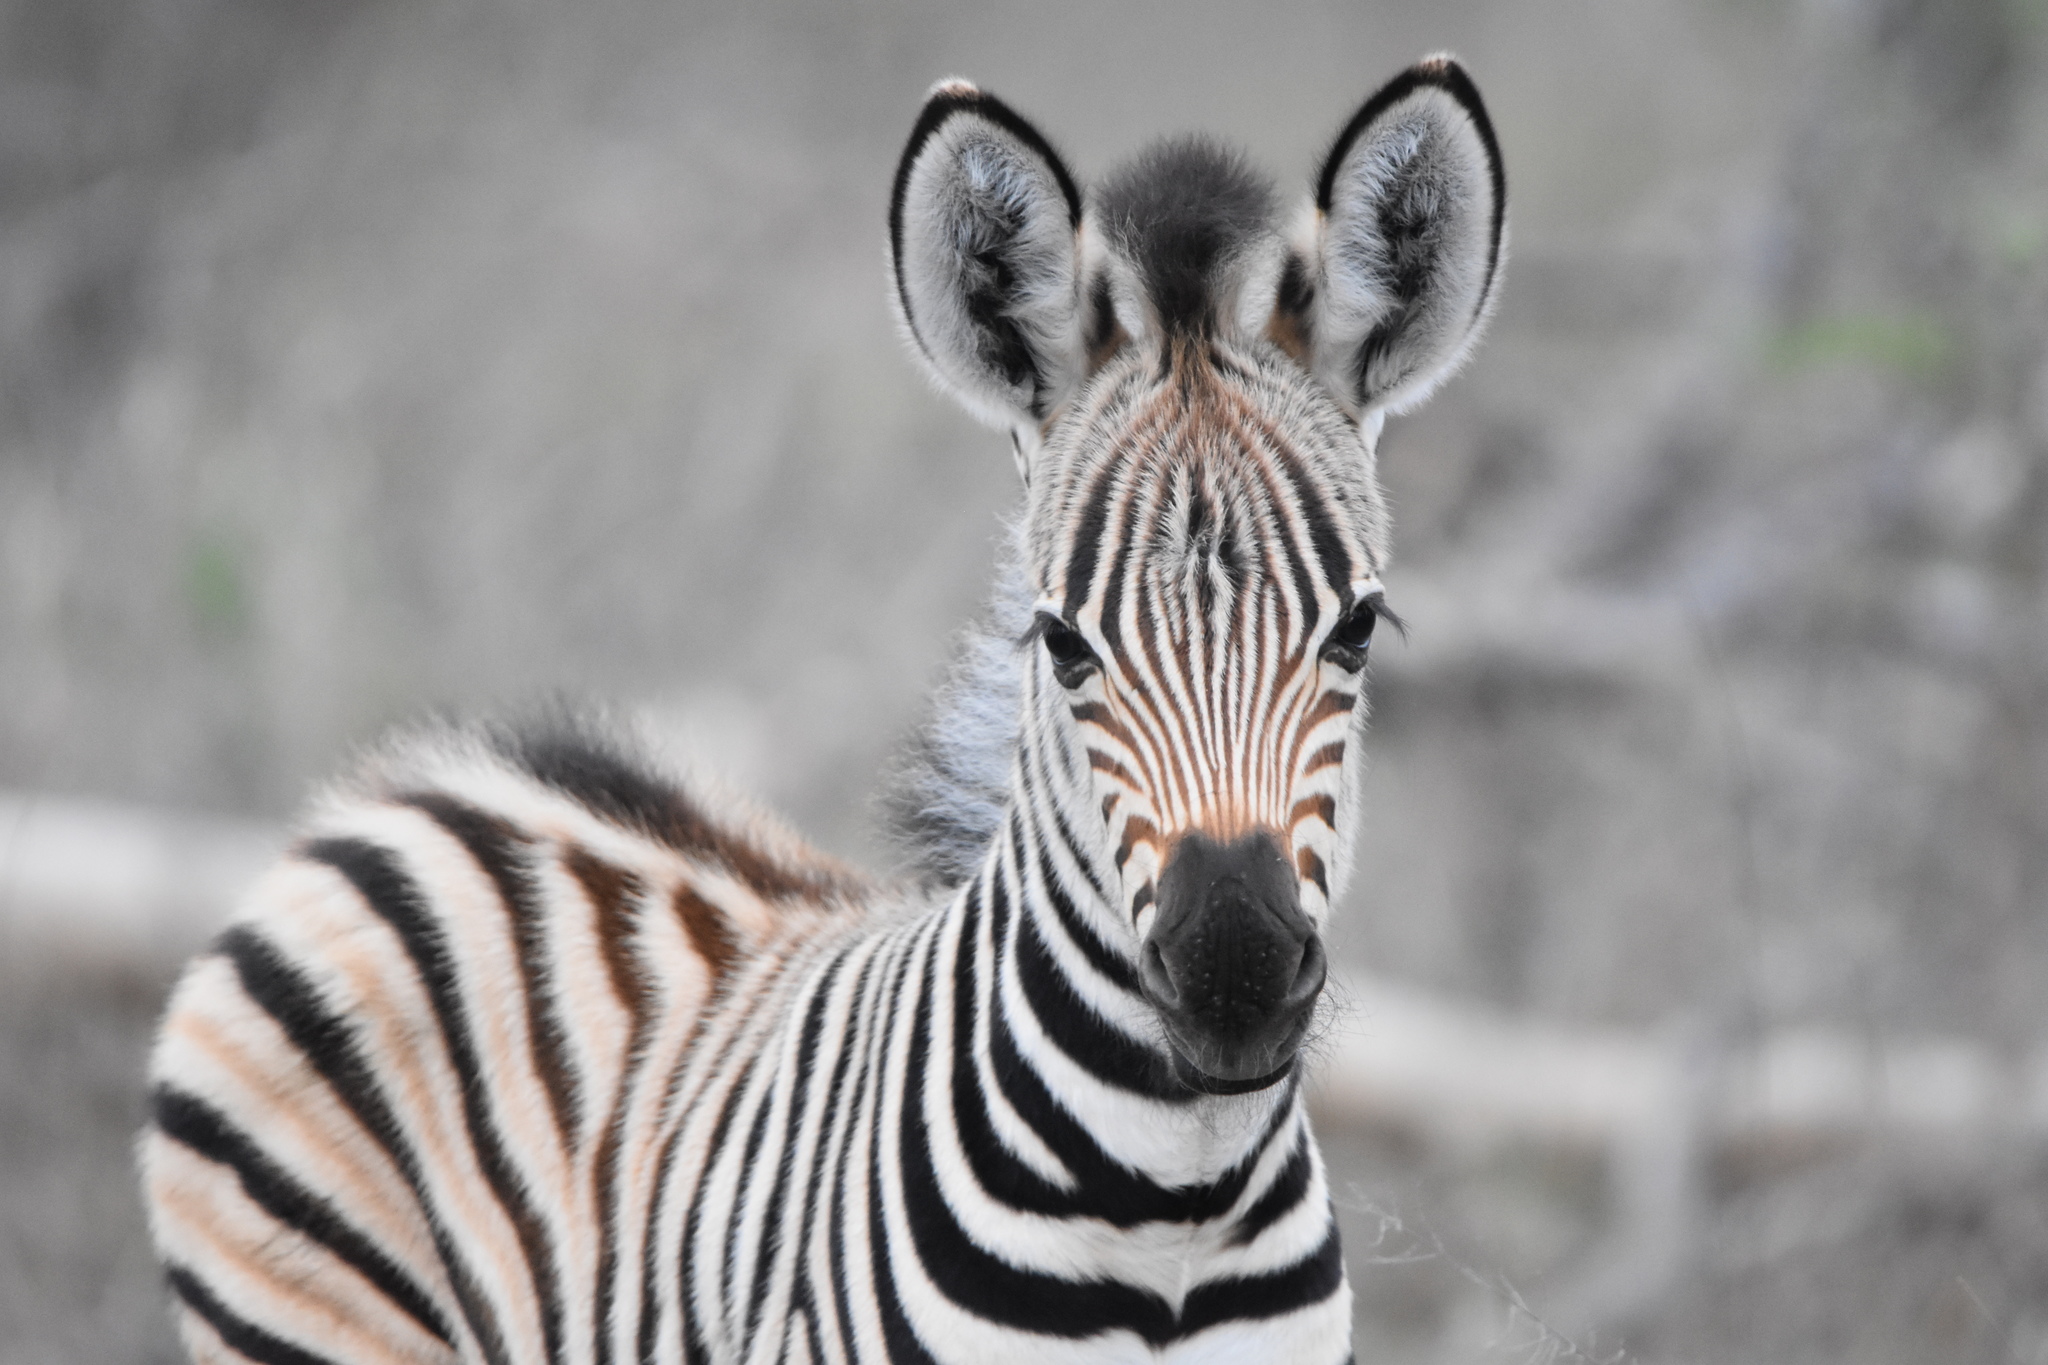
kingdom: Animalia
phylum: Chordata
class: Mammalia
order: Perissodactyla
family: Equidae
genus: Equus
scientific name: Equus quagga
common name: Plains zebra
